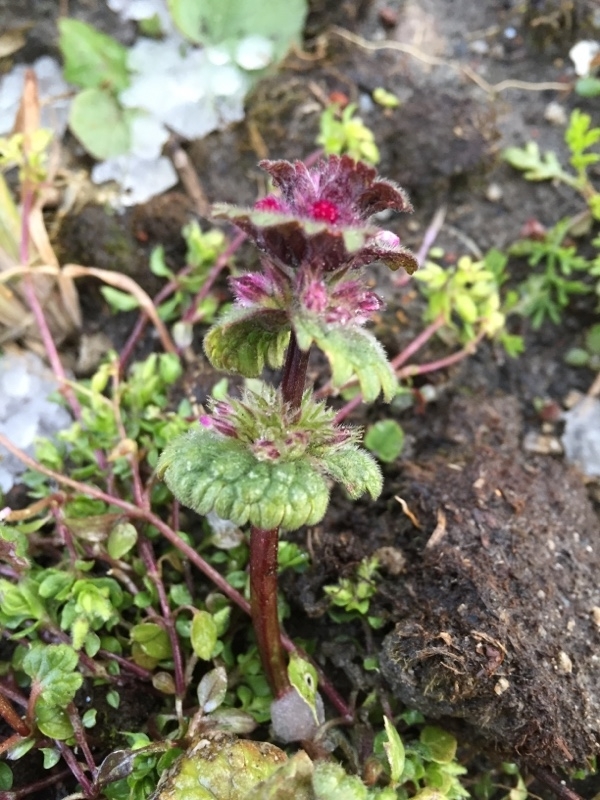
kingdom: Plantae
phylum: Tracheophyta
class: Magnoliopsida
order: Lamiales
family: Lamiaceae
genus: Lamium
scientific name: Lamium amplexicaule
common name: Henbit dead-nettle
